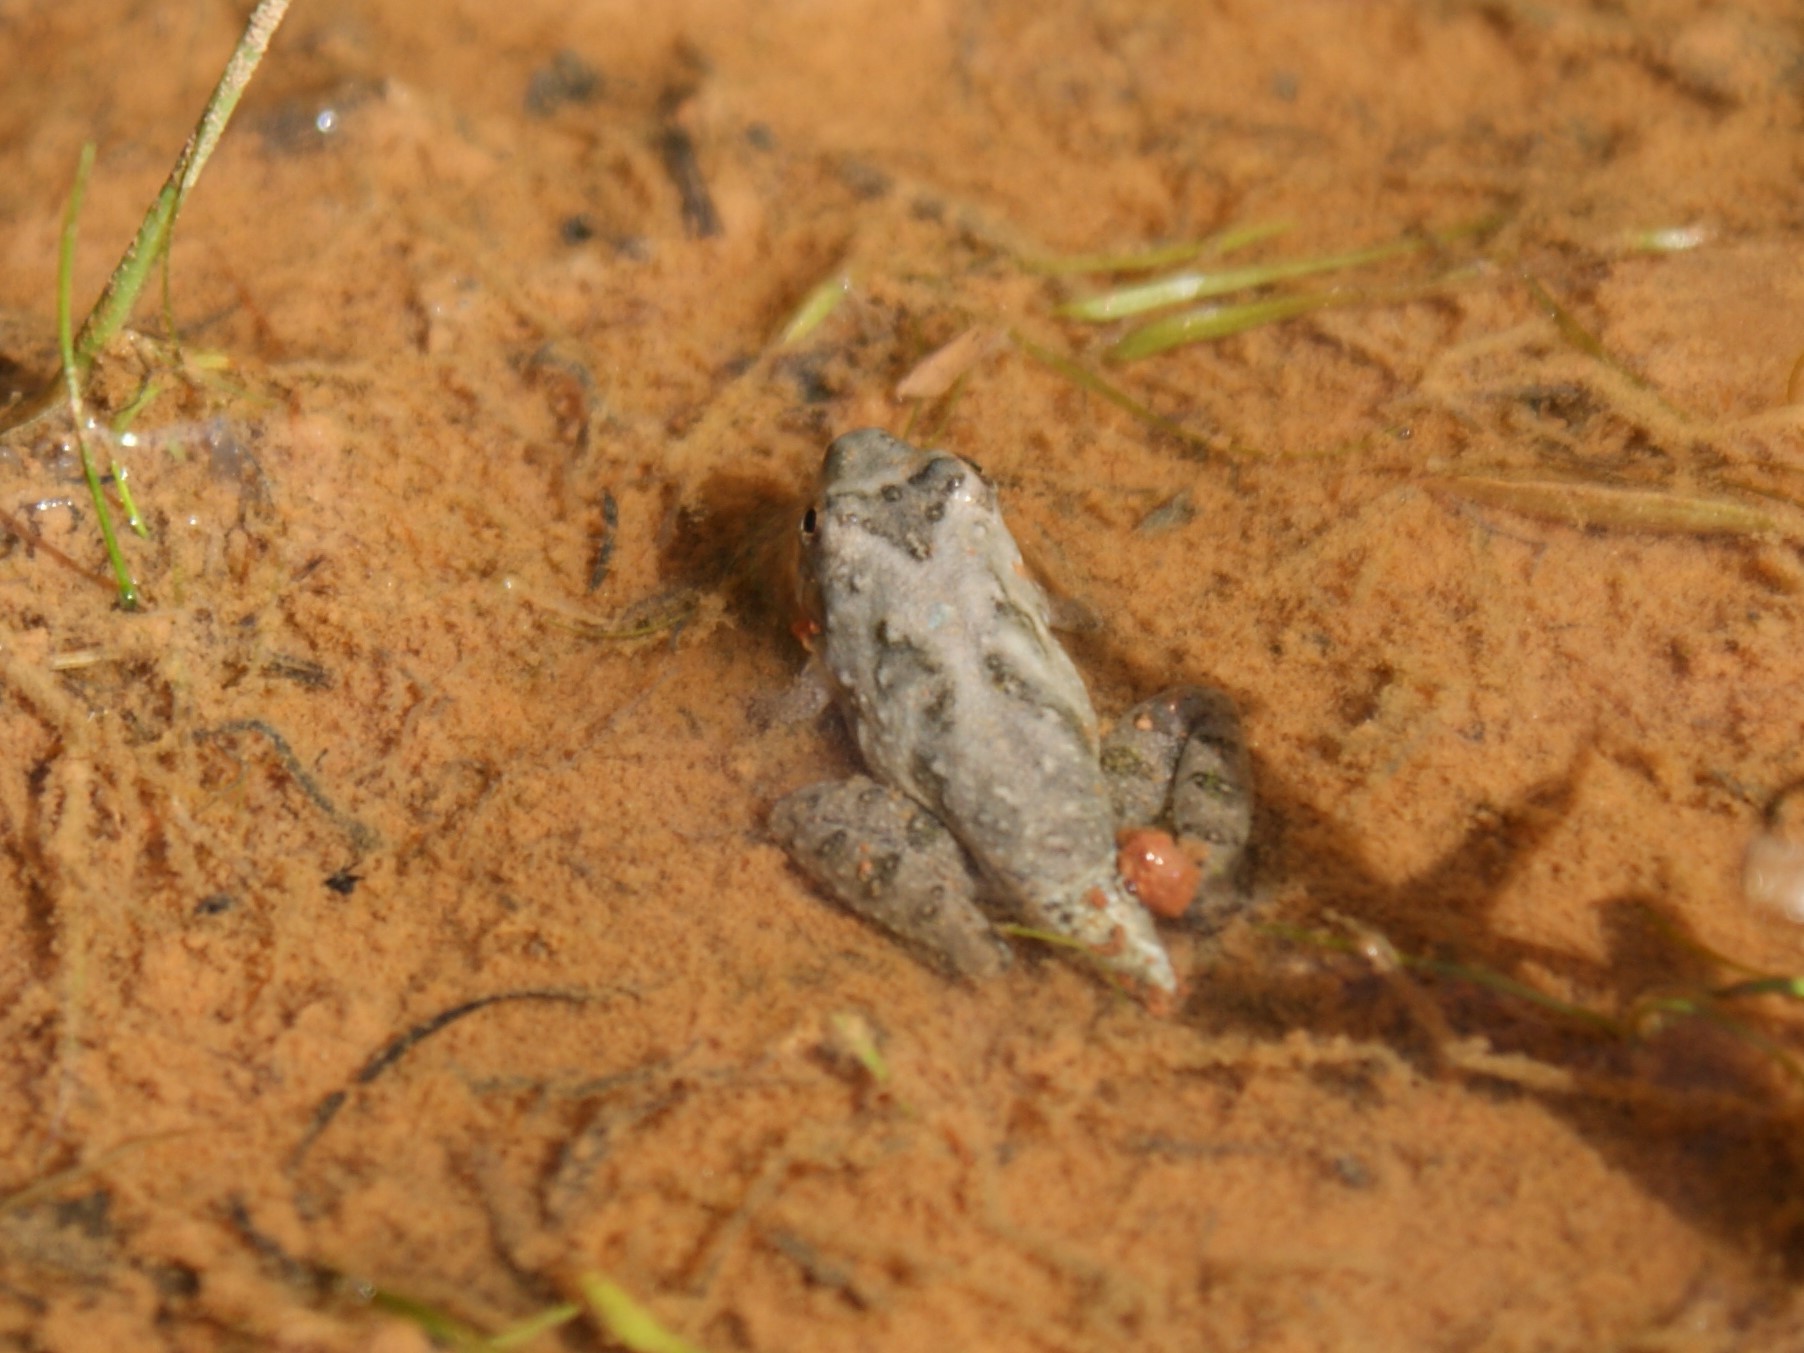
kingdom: Animalia
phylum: Chordata
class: Amphibia
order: Anura
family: Hylidae
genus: Acris
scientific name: Acris crepitans
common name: Northern cricket frog
